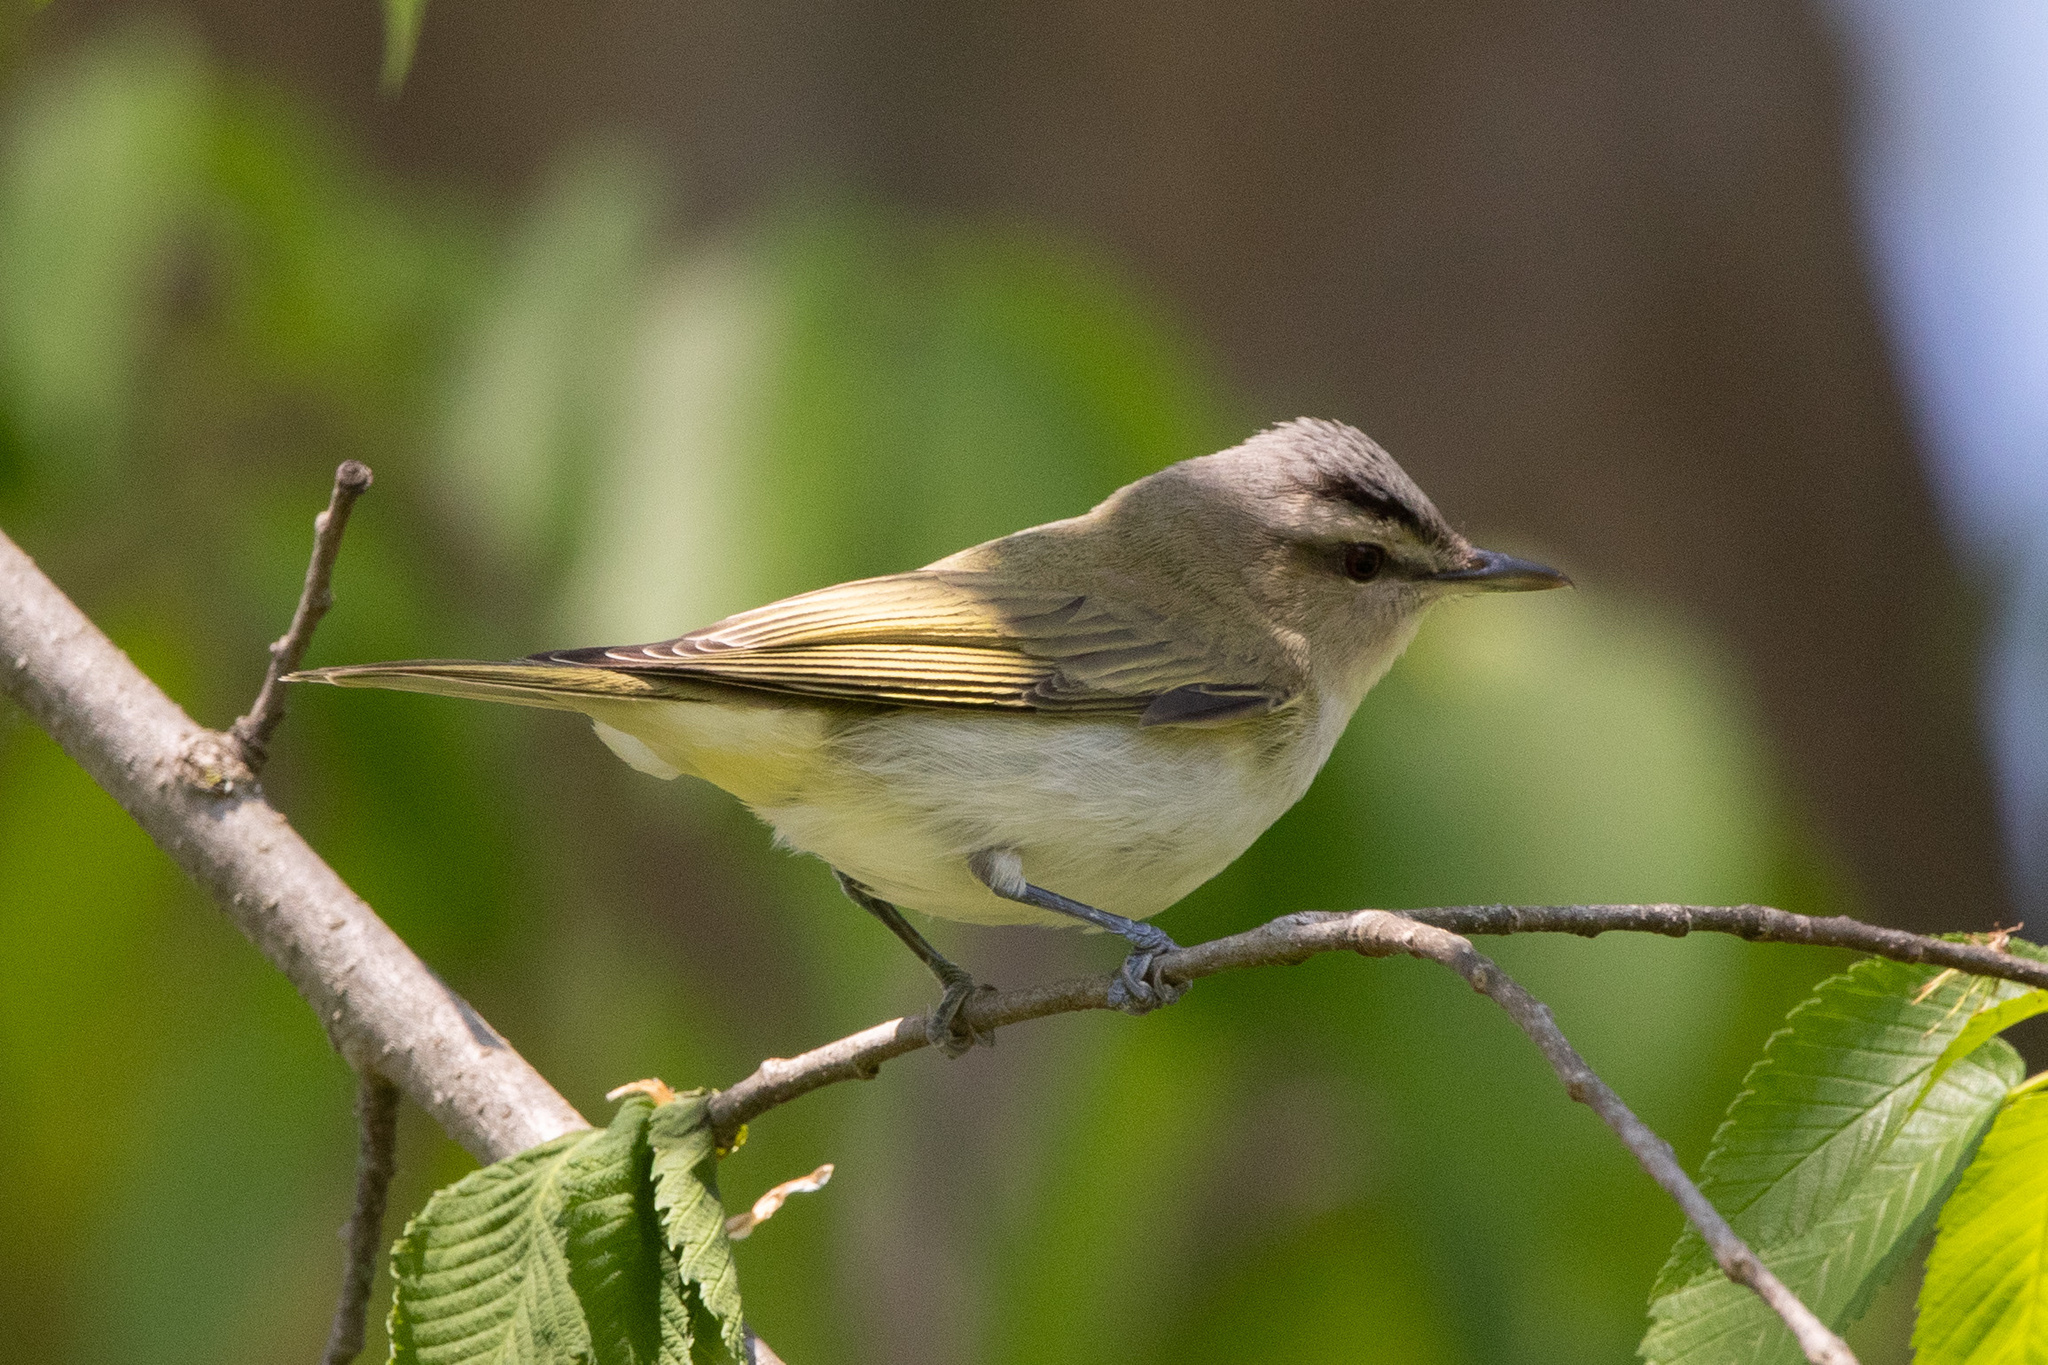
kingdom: Animalia
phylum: Chordata
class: Aves
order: Passeriformes
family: Vireonidae
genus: Vireo
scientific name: Vireo olivaceus
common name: Red-eyed vireo
